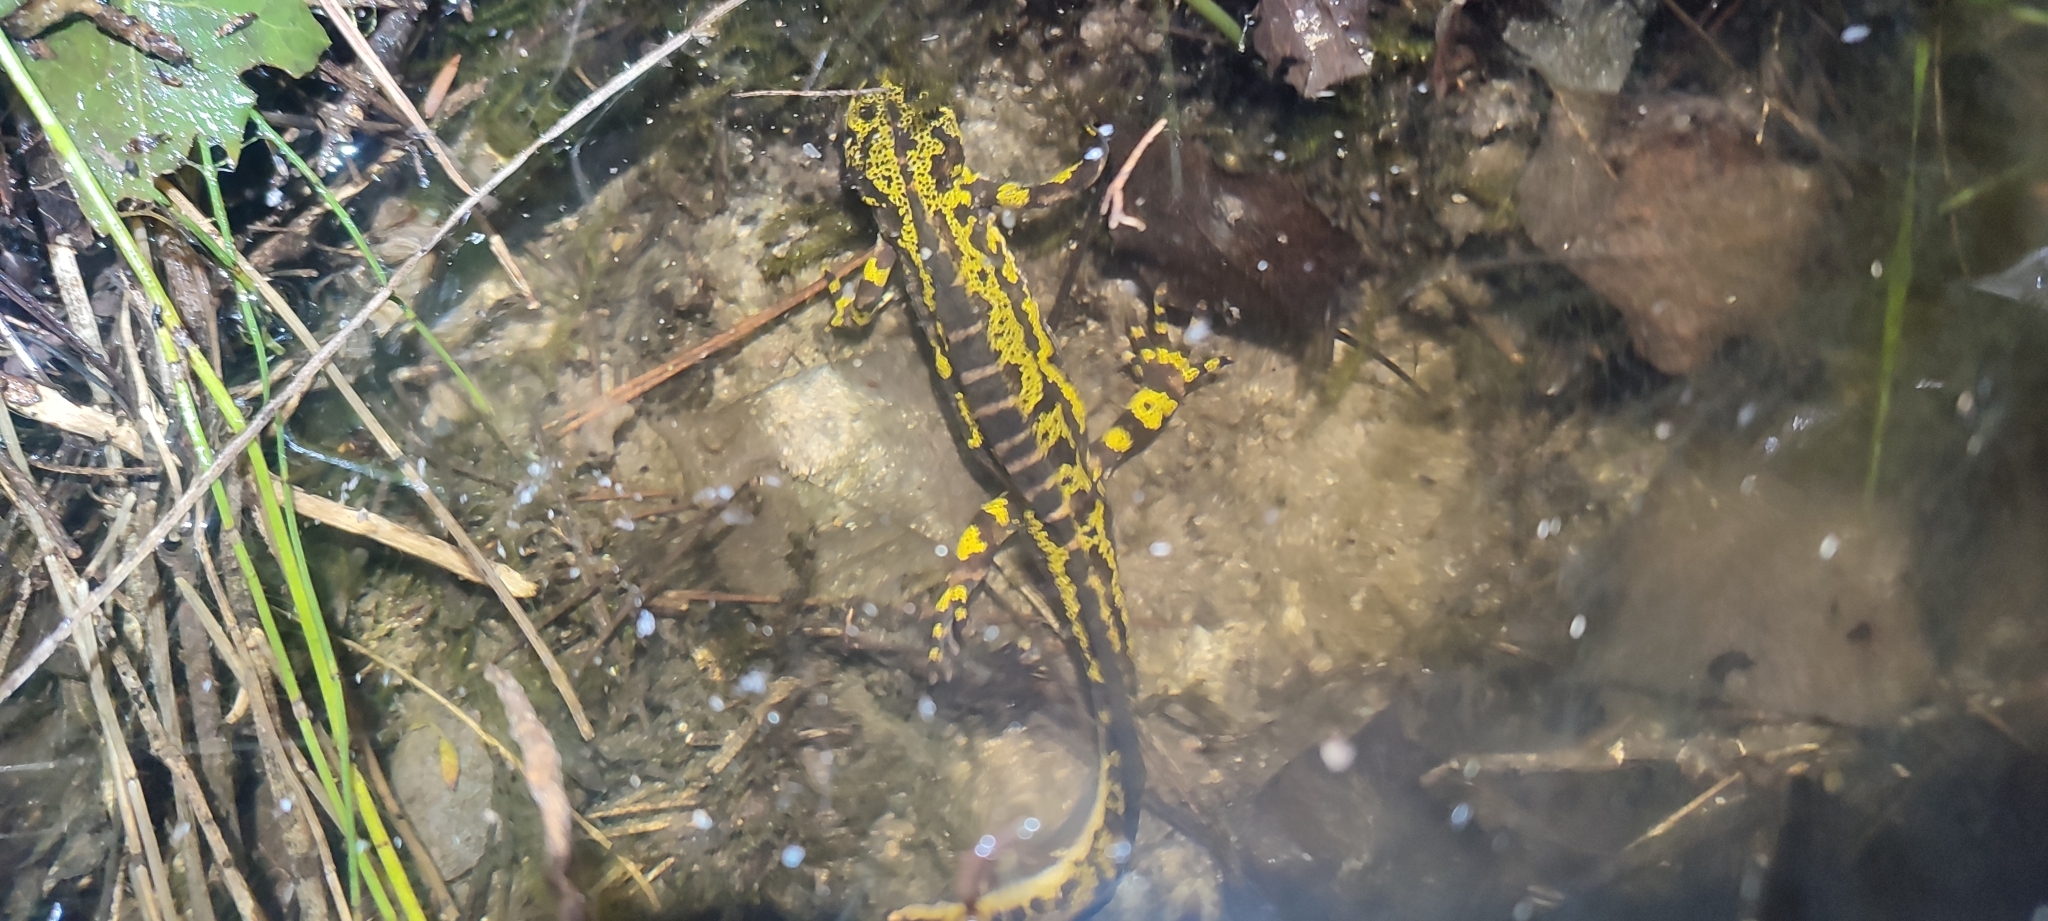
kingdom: Animalia
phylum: Chordata
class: Amphibia
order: Caudata
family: Salamandridae
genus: Triturus
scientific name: Triturus marmoratus
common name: Marbled newt
